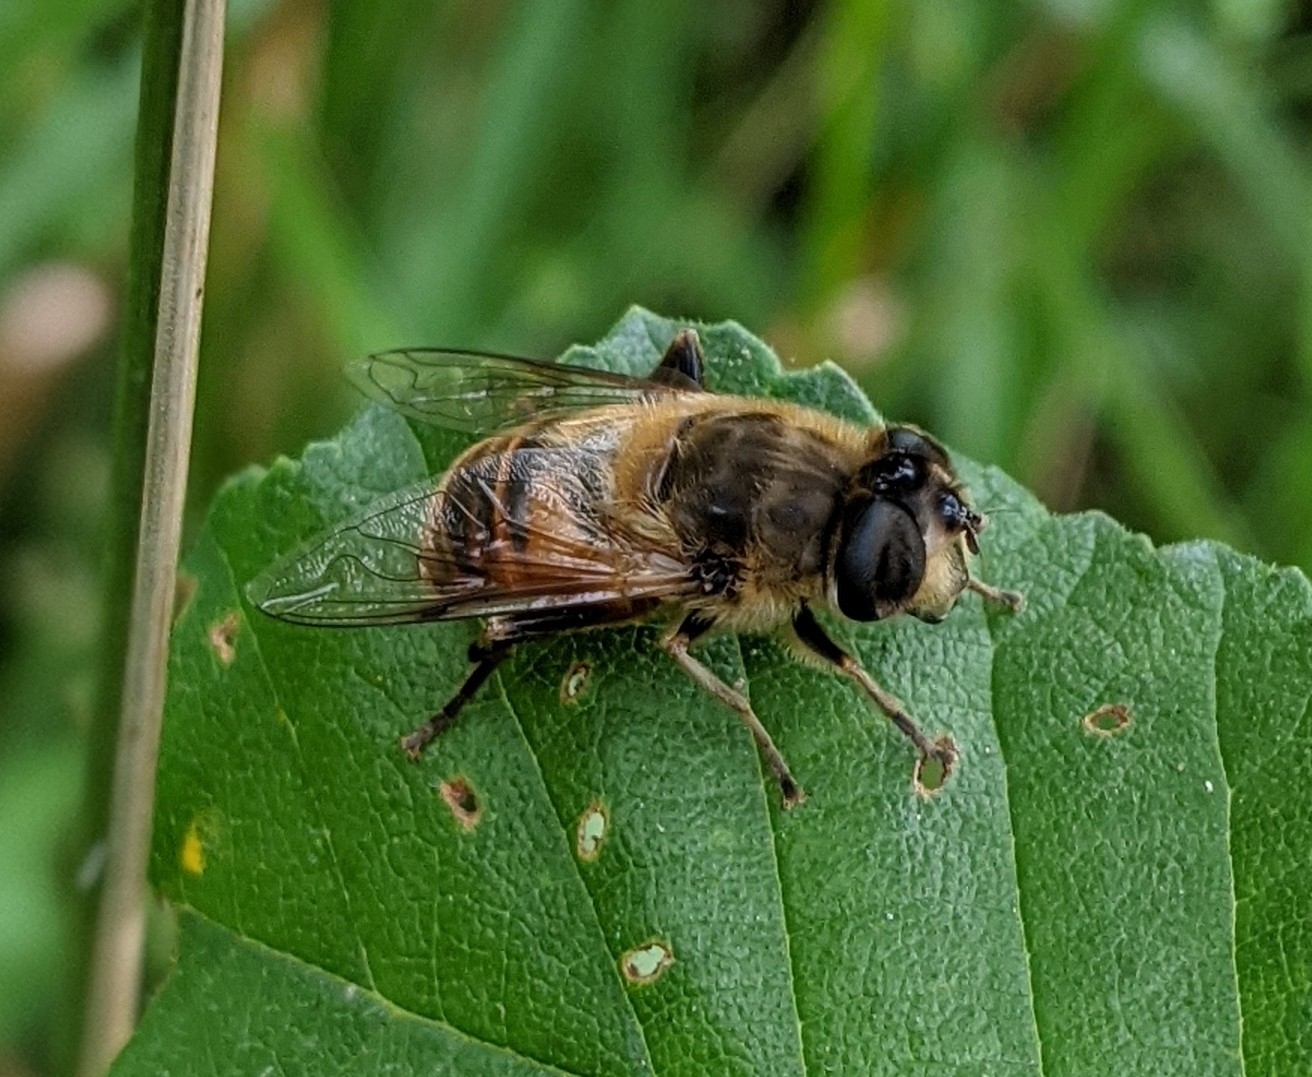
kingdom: Animalia
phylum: Arthropoda
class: Insecta
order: Diptera
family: Syrphidae
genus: Eristalis
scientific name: Eristalis tenax
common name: Drone fly
